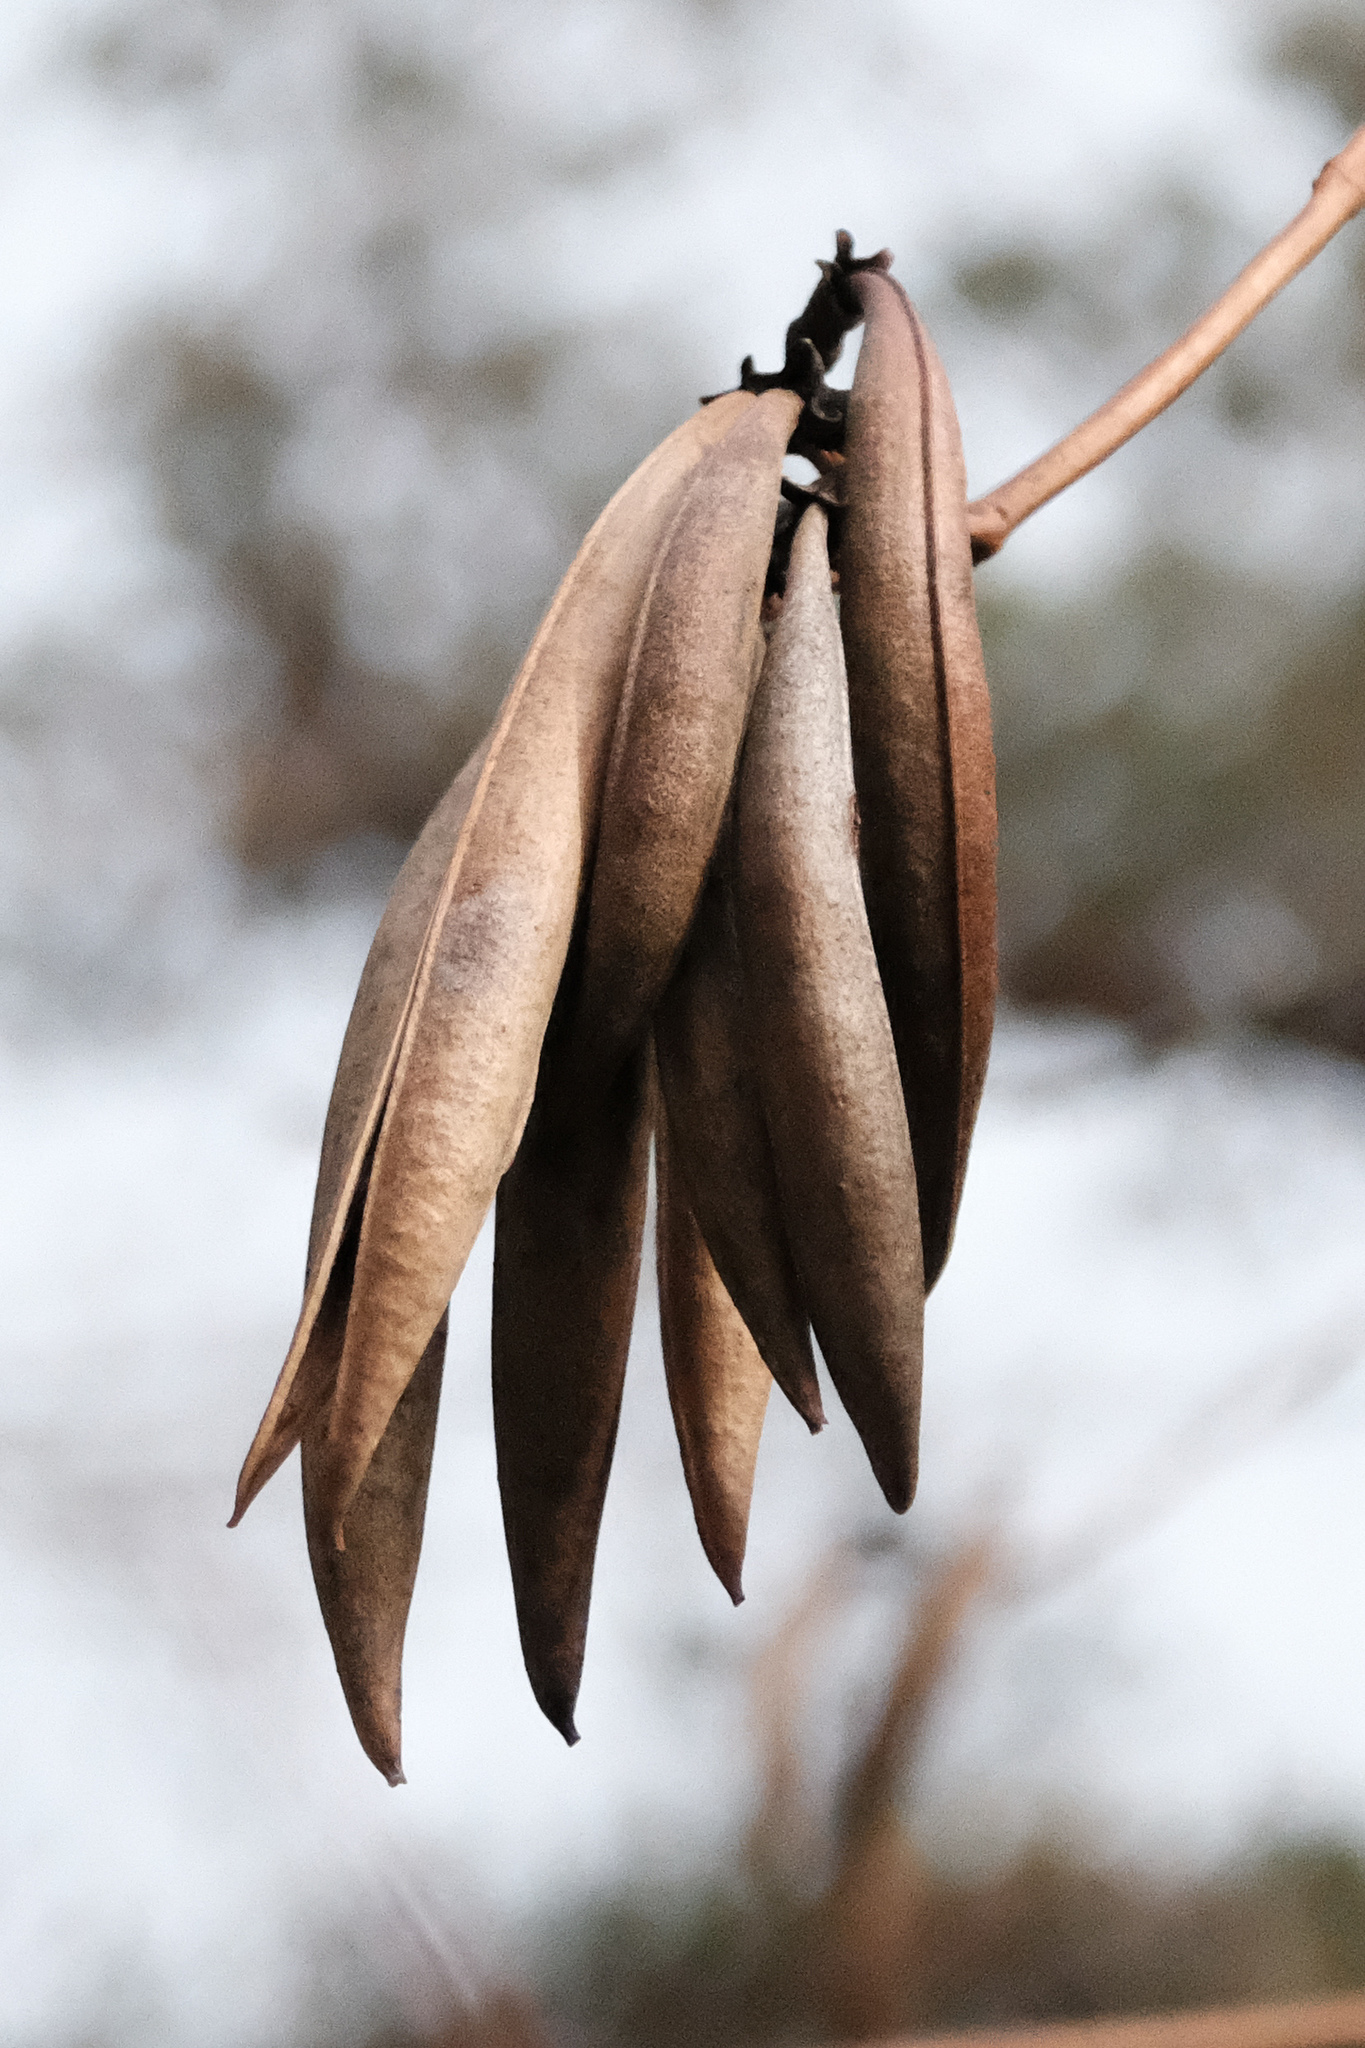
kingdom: Plantae
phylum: Tracheophyta
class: Magnoliopsida
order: Lamiales
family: Bignoniaceae
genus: Campsis
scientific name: Campsis radicans
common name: Trumpet-creeper
